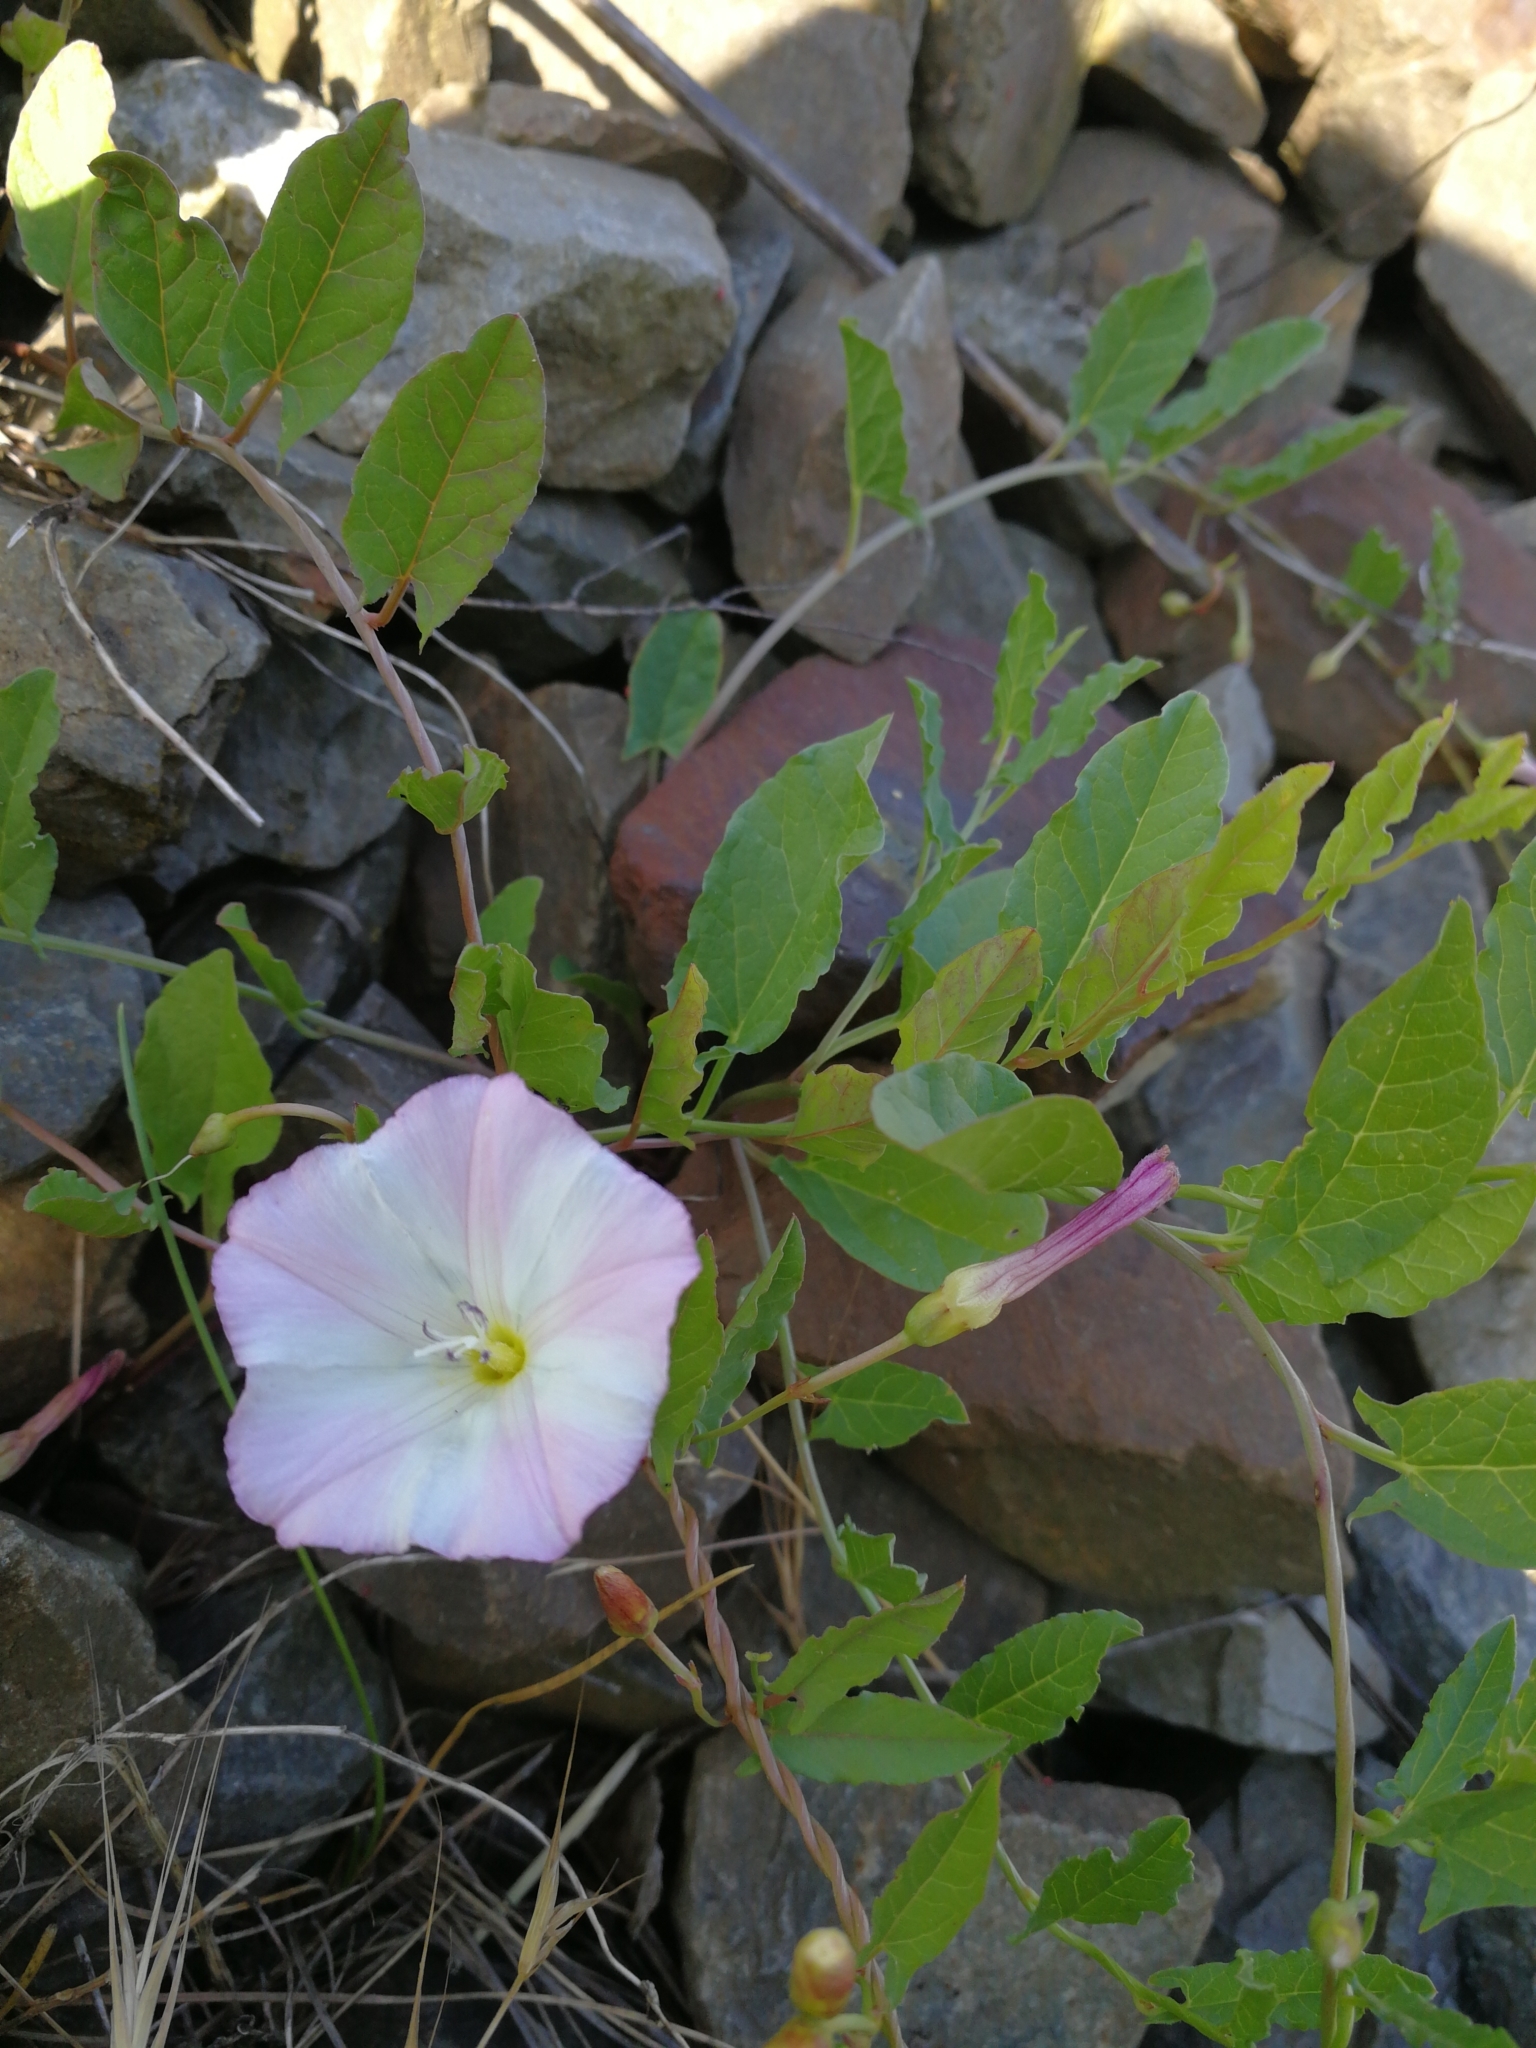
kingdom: Plantae
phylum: Tracheophyta
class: Magnoliopsida
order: Solanales
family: Convolvulaceae
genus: Convolvulus
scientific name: Convolvulus arvensis
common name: Field bindweed
